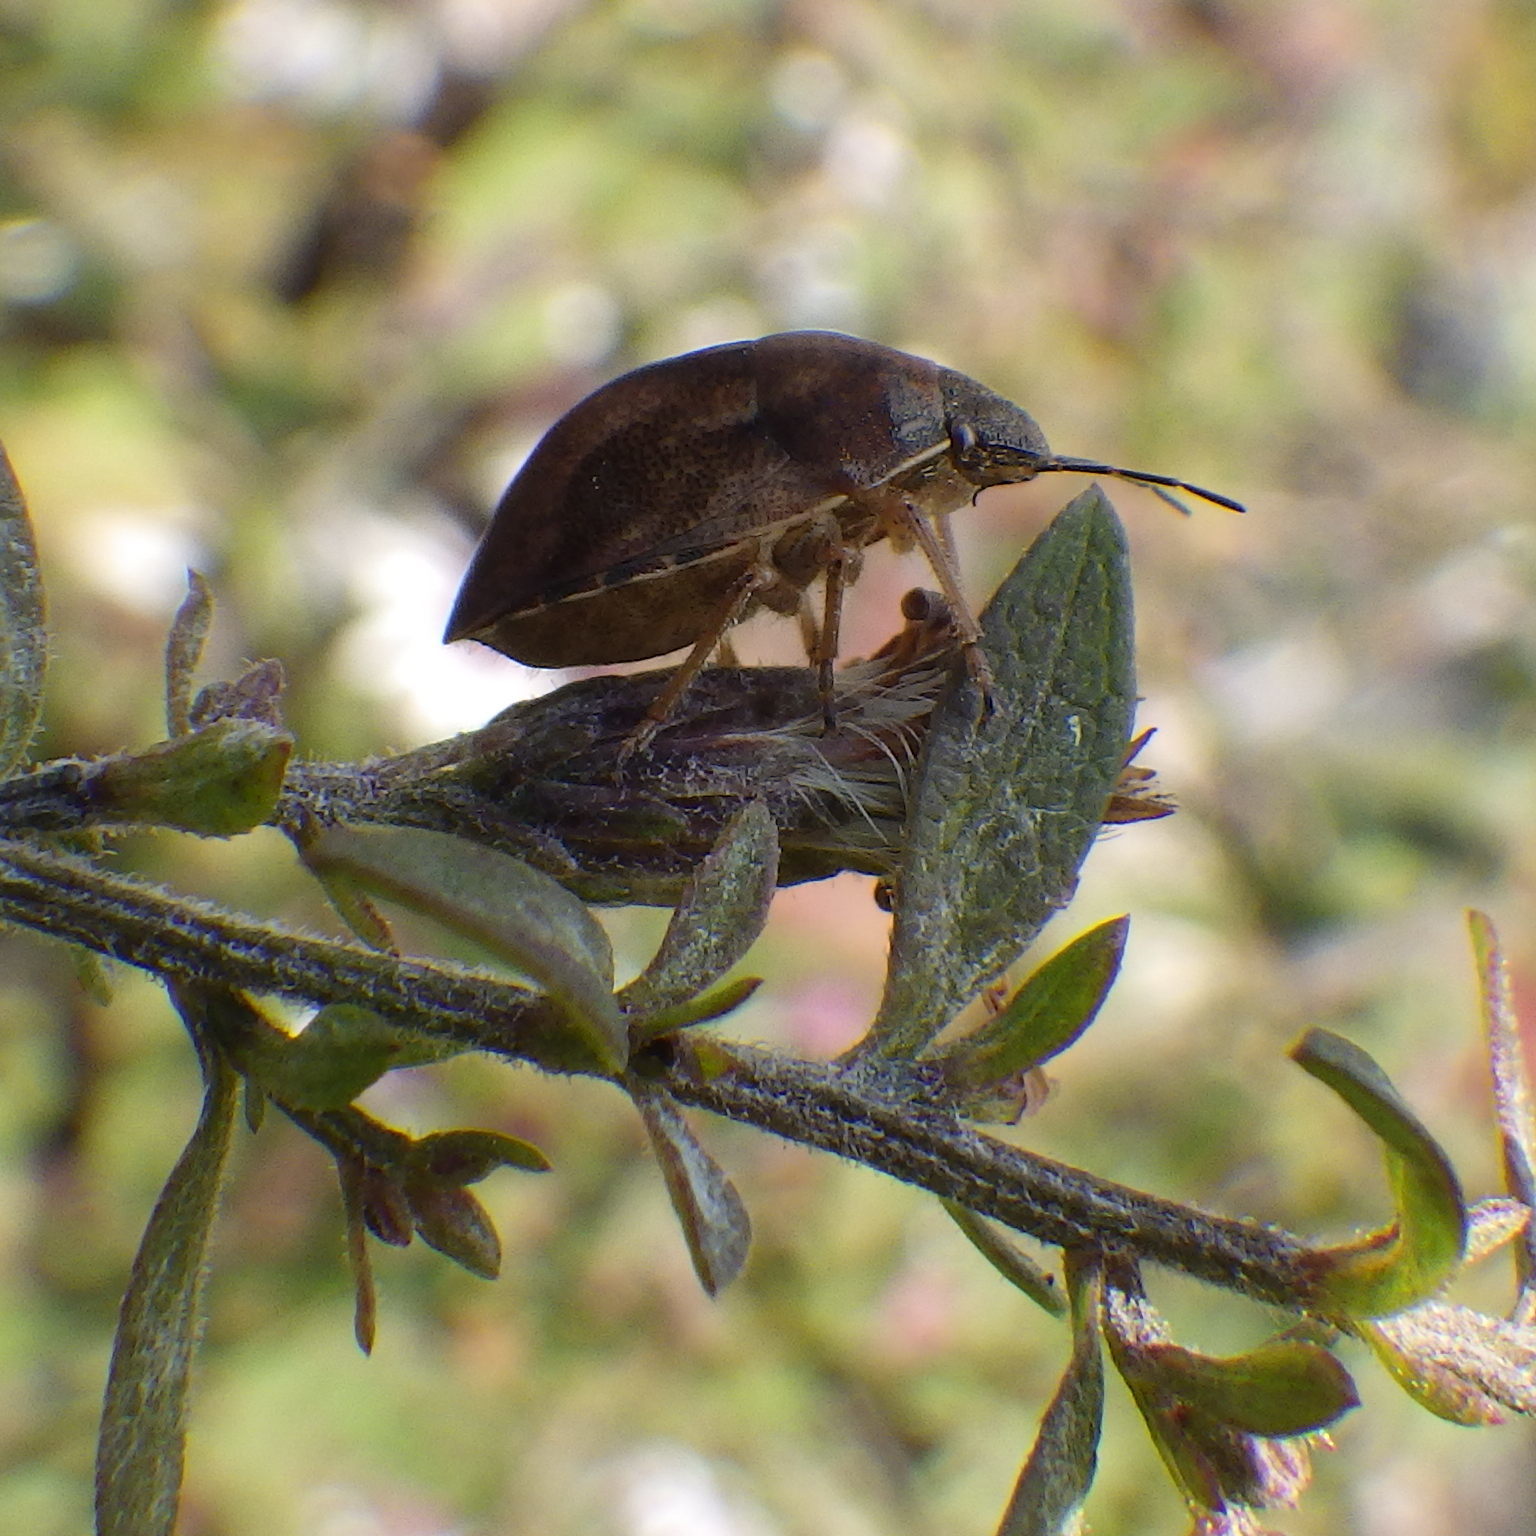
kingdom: Animalia
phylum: Arthropoda
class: Insecta
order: Hemiptera
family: Scutelleridae
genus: Homaemus
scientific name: Homaemus aeneifrons
